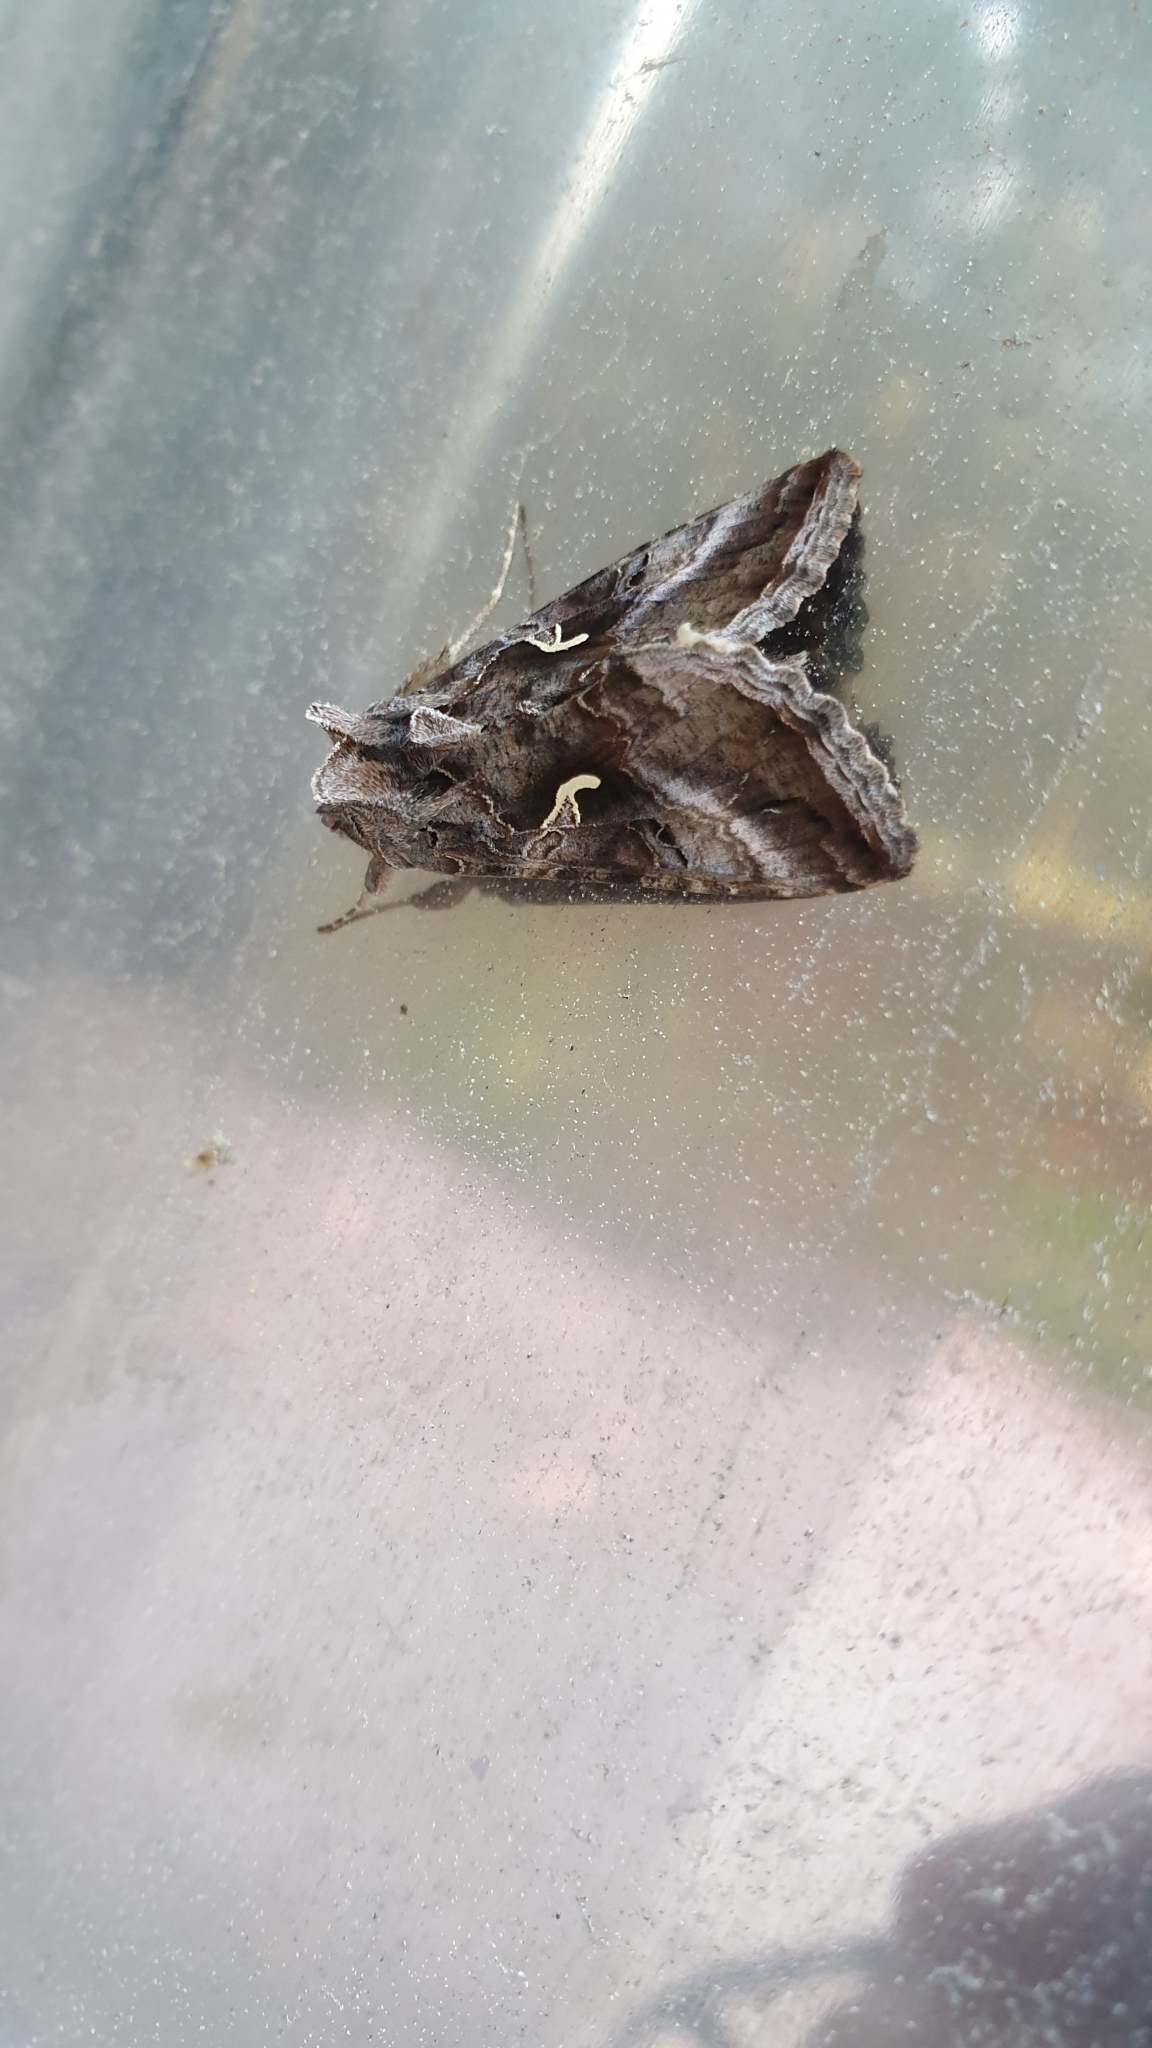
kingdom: Animalia
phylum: Arthropoda
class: Insecta
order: Lepidoptera
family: Noctuidae
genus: Autographa
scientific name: Autographa gamma
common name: Silver y
